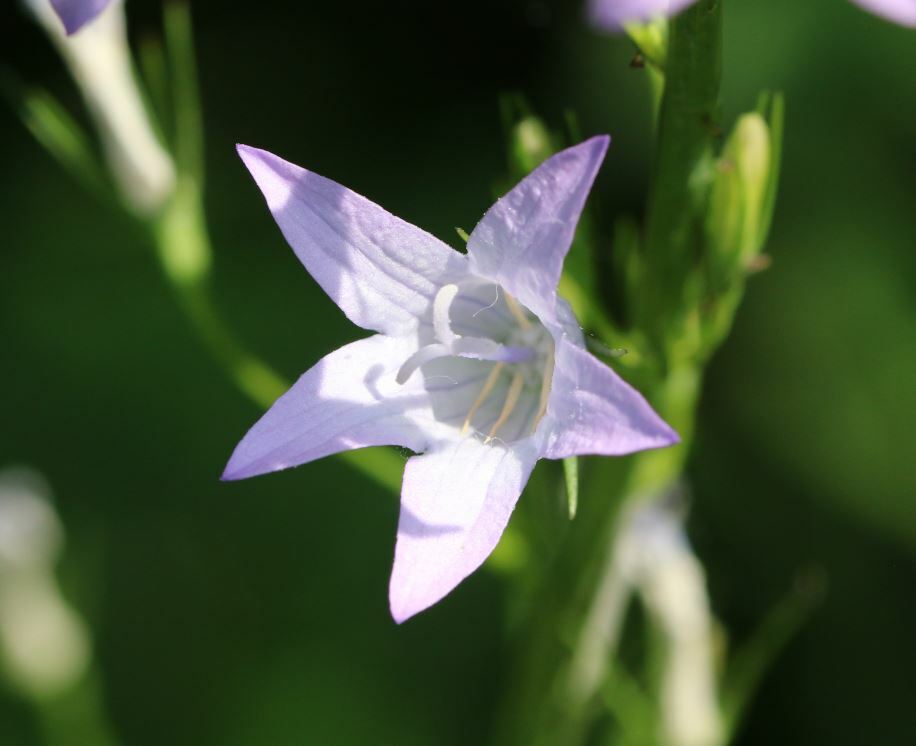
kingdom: Plantae
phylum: Tracheophyta
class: Magnoliopsida
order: Asterales
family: Campanulaceae
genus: Campanula
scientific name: Campanula rapunculus
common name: Rampion bellflower
